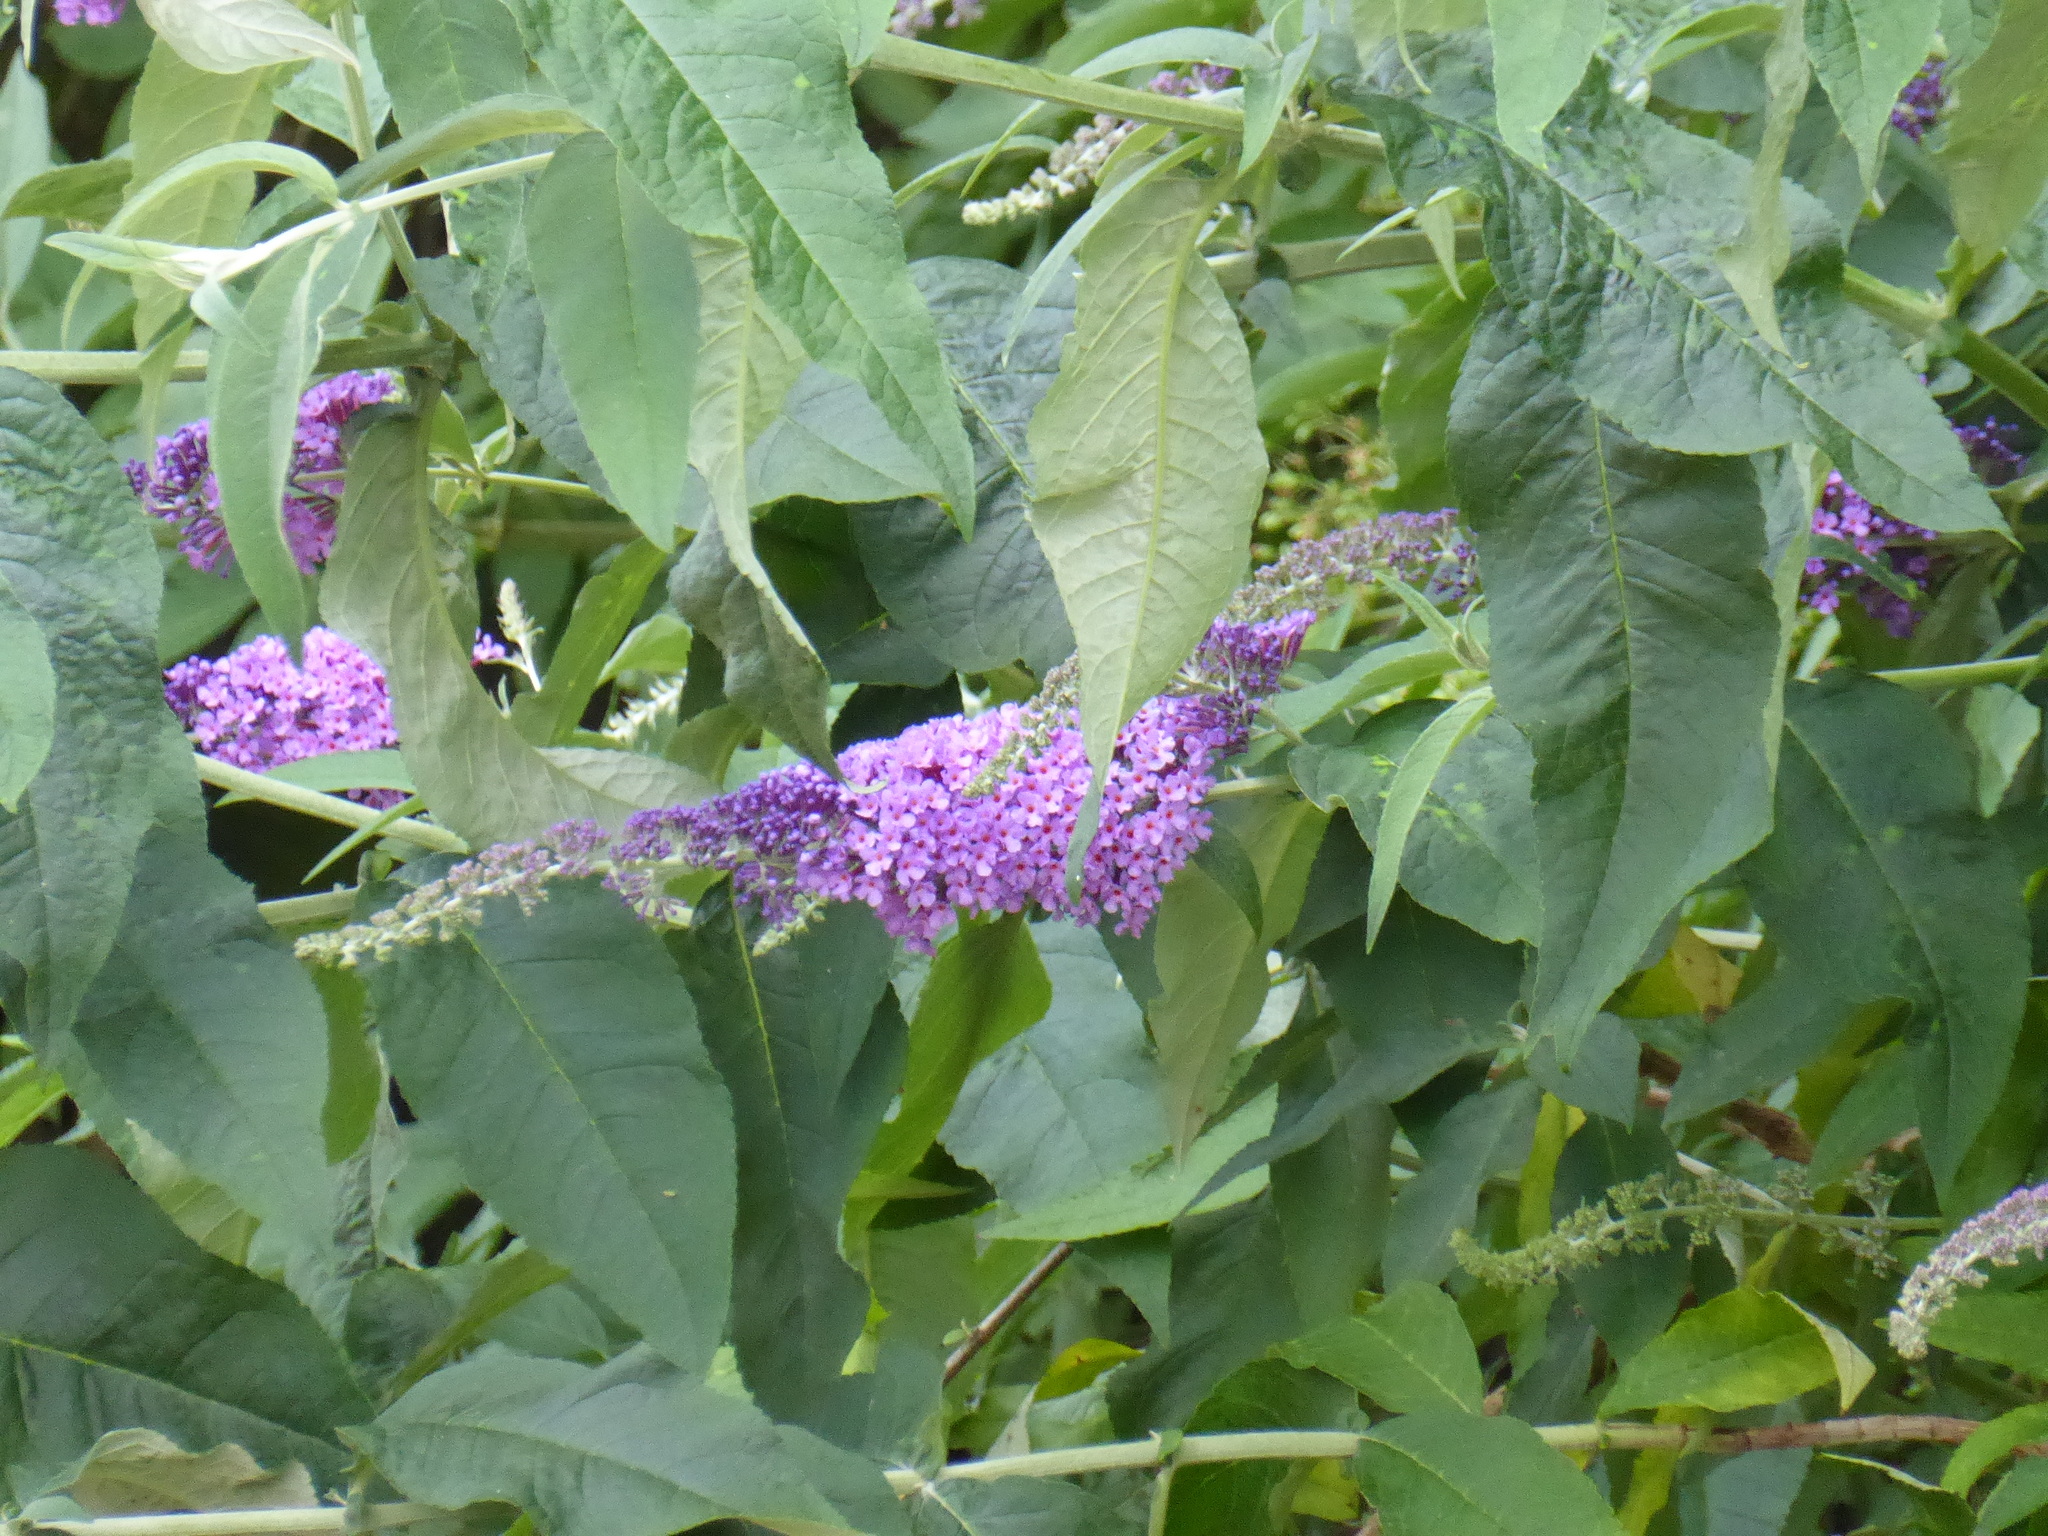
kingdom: Plantae
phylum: Tracheophyta
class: Magnoliopsida
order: Lamiales
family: Scrophulariaceae
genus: Buddleja
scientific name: Buddleja davidii
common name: Butterfly-bush
